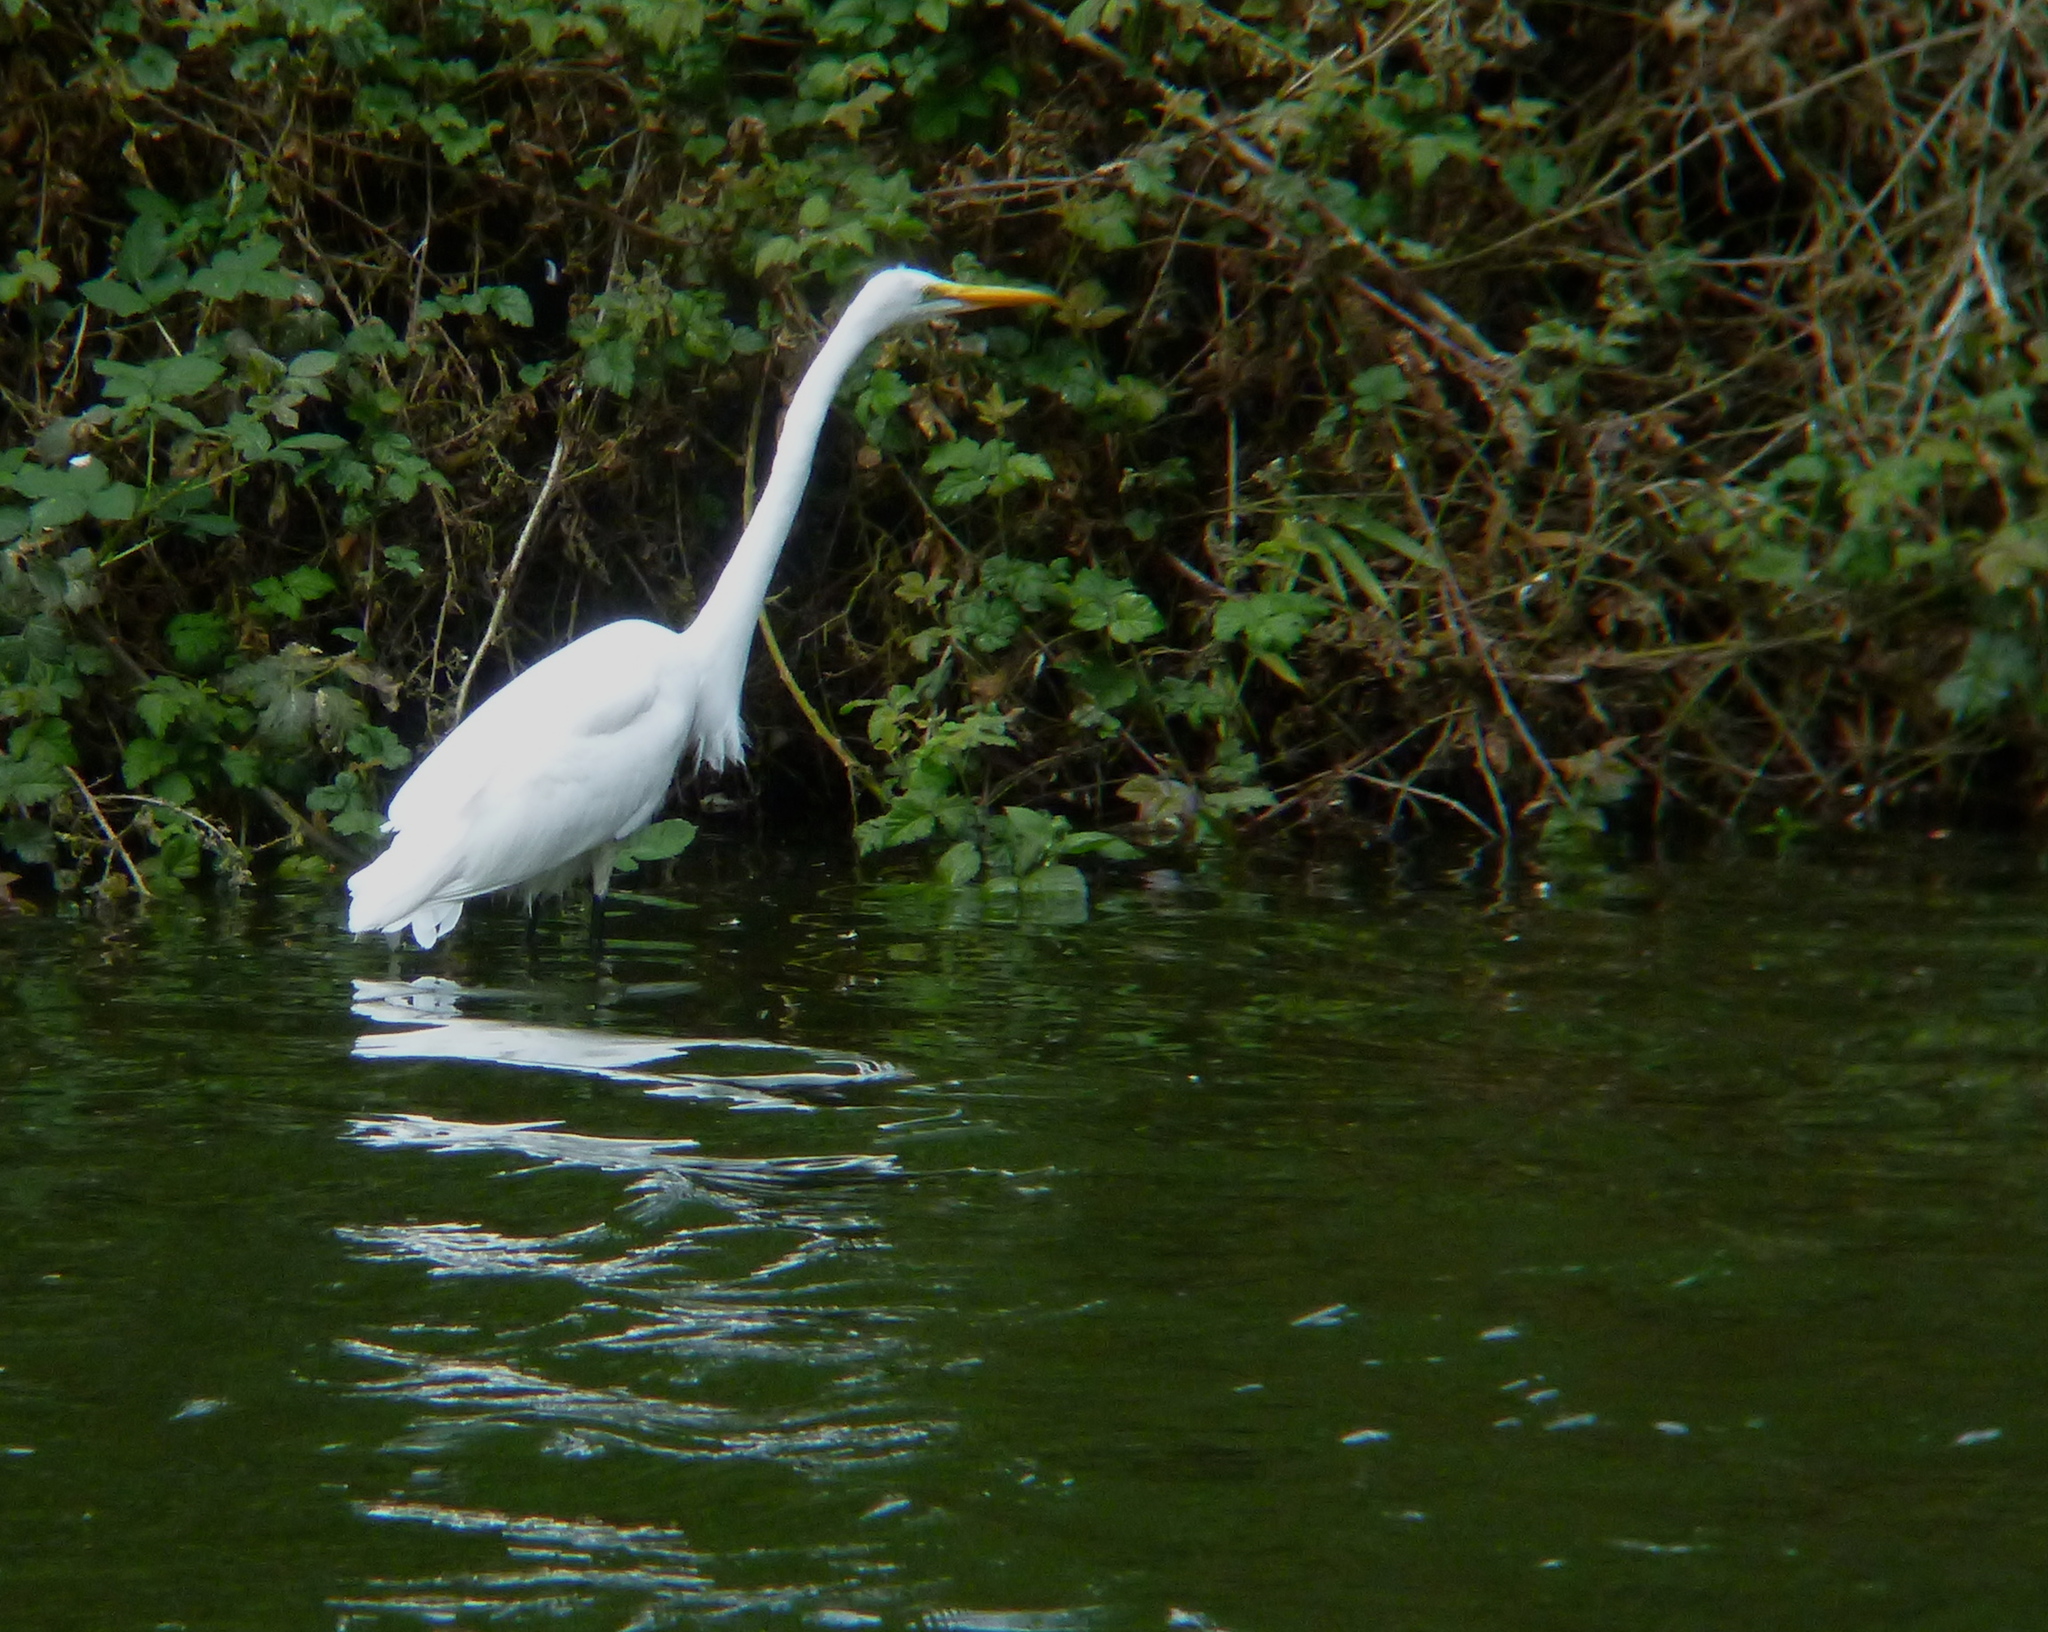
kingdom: Animalia
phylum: Chordata
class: Aves
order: Pelecaniformes
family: Ardeidae
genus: Ardea
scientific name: Ardea alba
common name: Great egret
